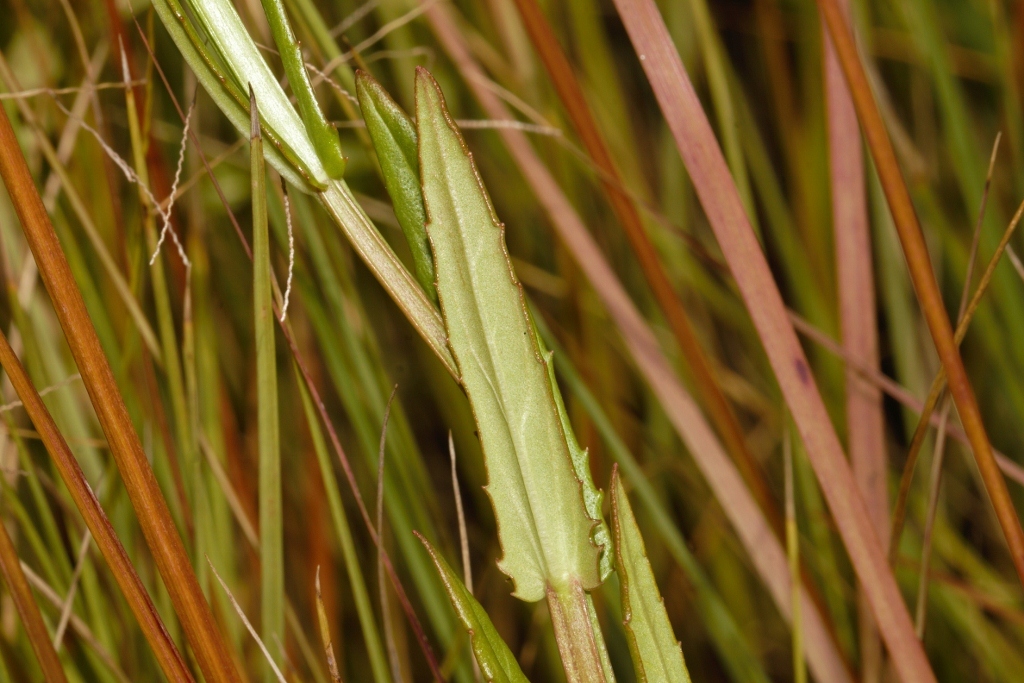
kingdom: Plantae
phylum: Tracheophyta
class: Magnoliopsida
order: Lamiales
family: Phrymaceae
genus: Mimulus
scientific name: Mimulus strictus
